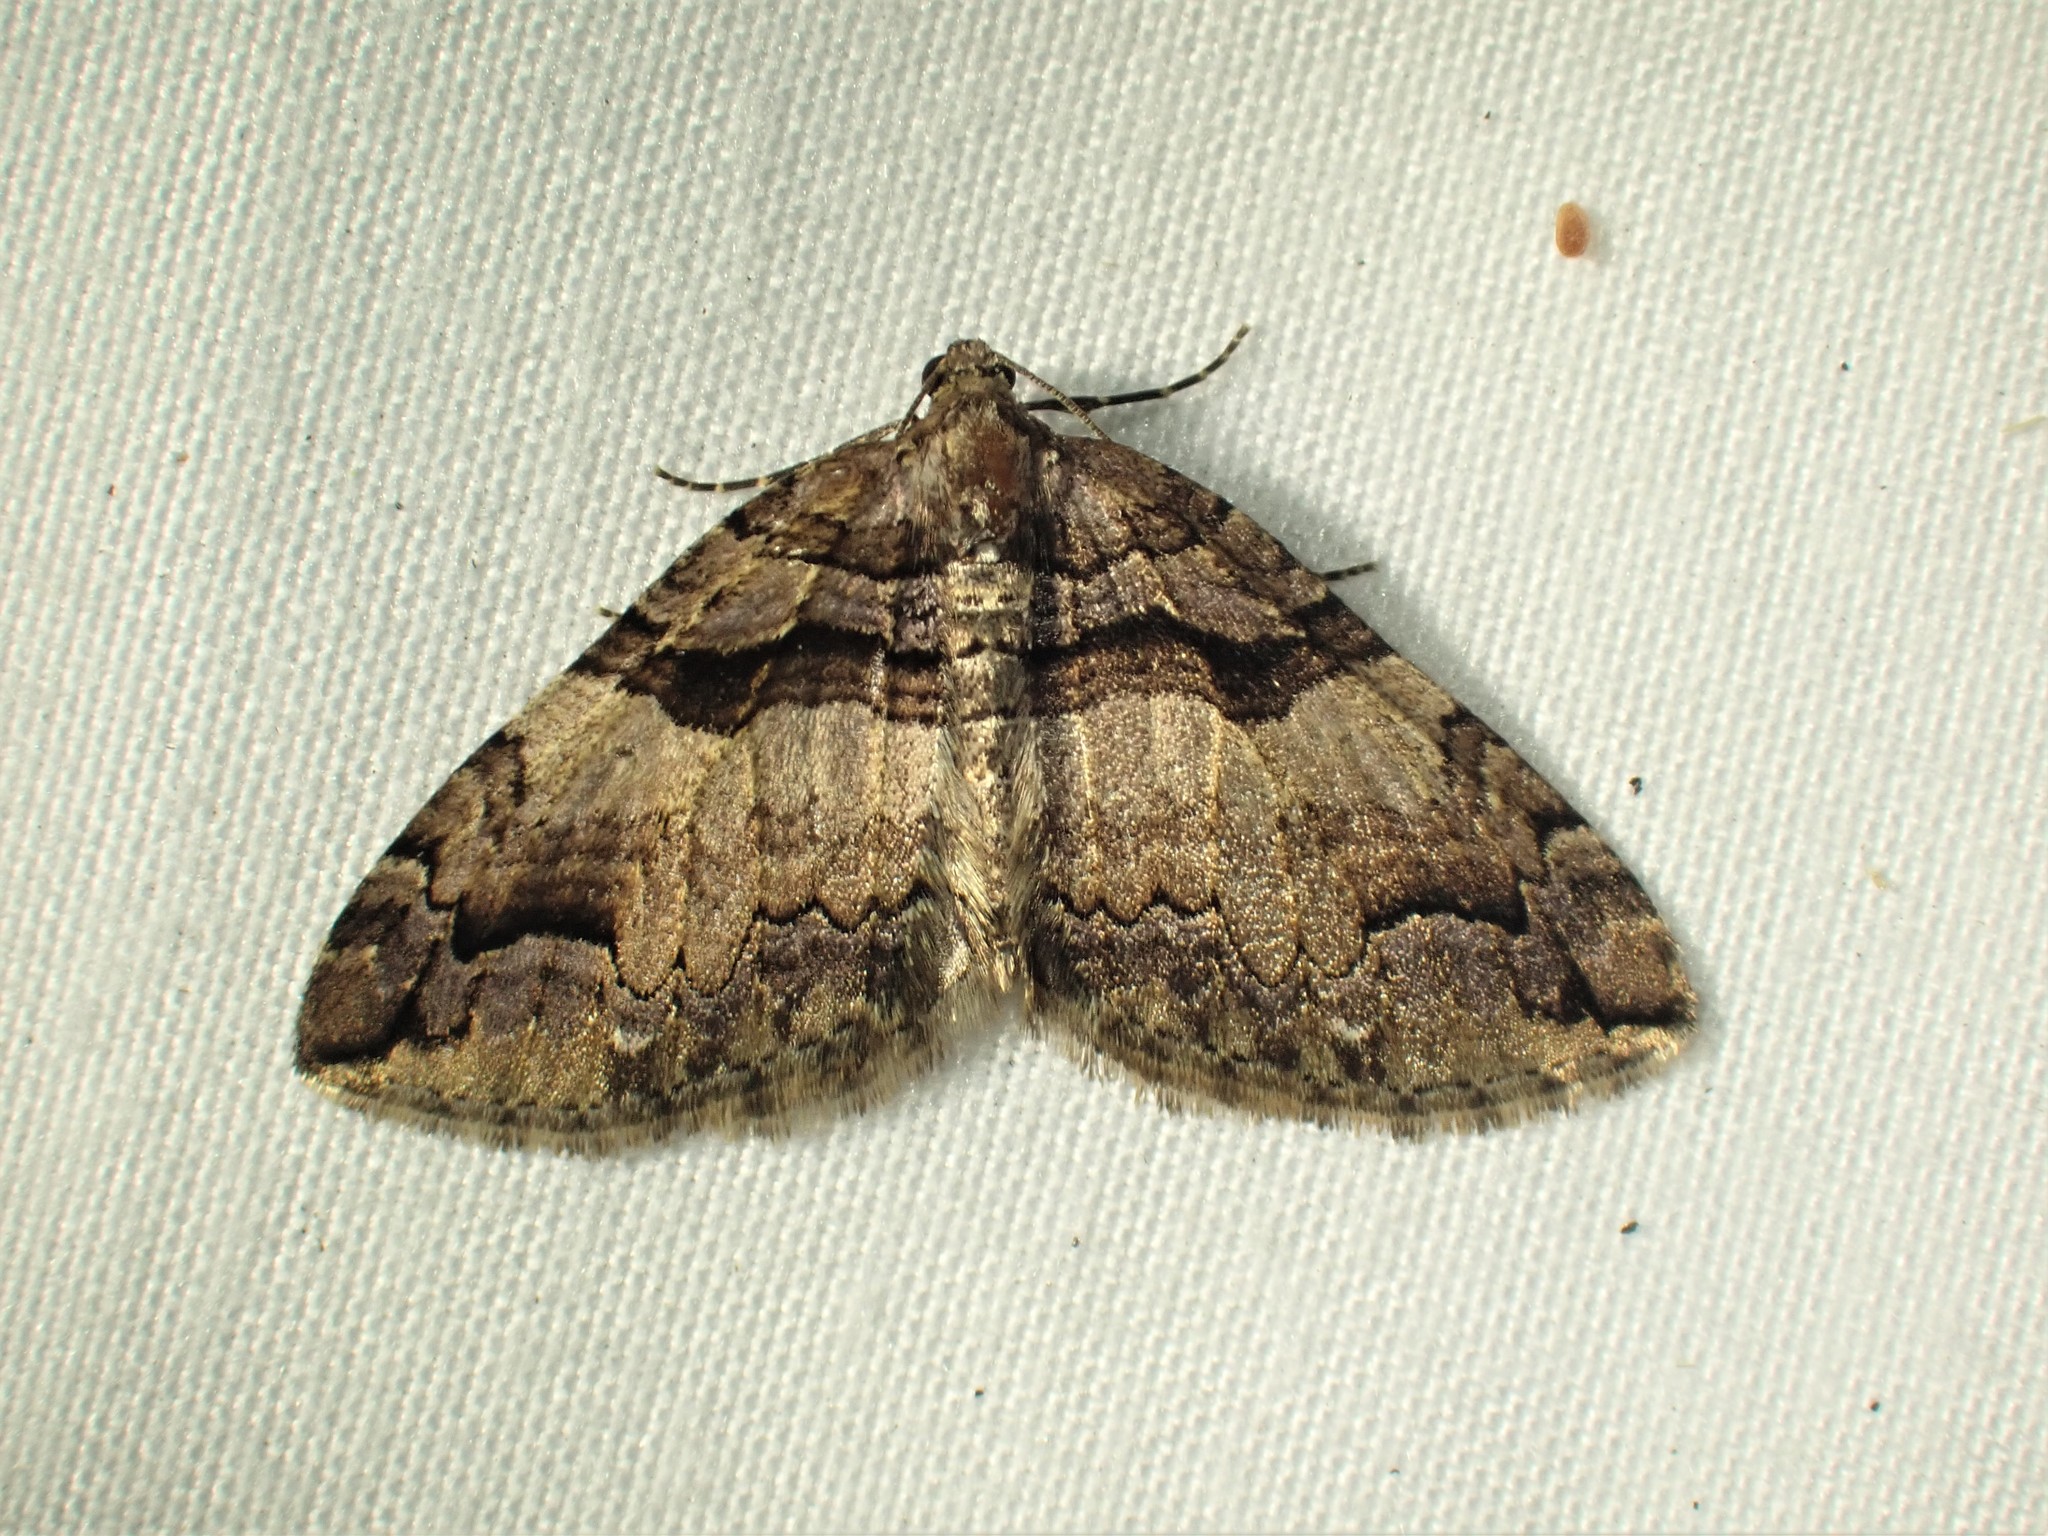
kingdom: Animalia
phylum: Arthropoda
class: Insecta
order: Lepidoptera
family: Geometridae
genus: Anticlea
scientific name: Anticlea vasiliata
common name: Variable carpet
